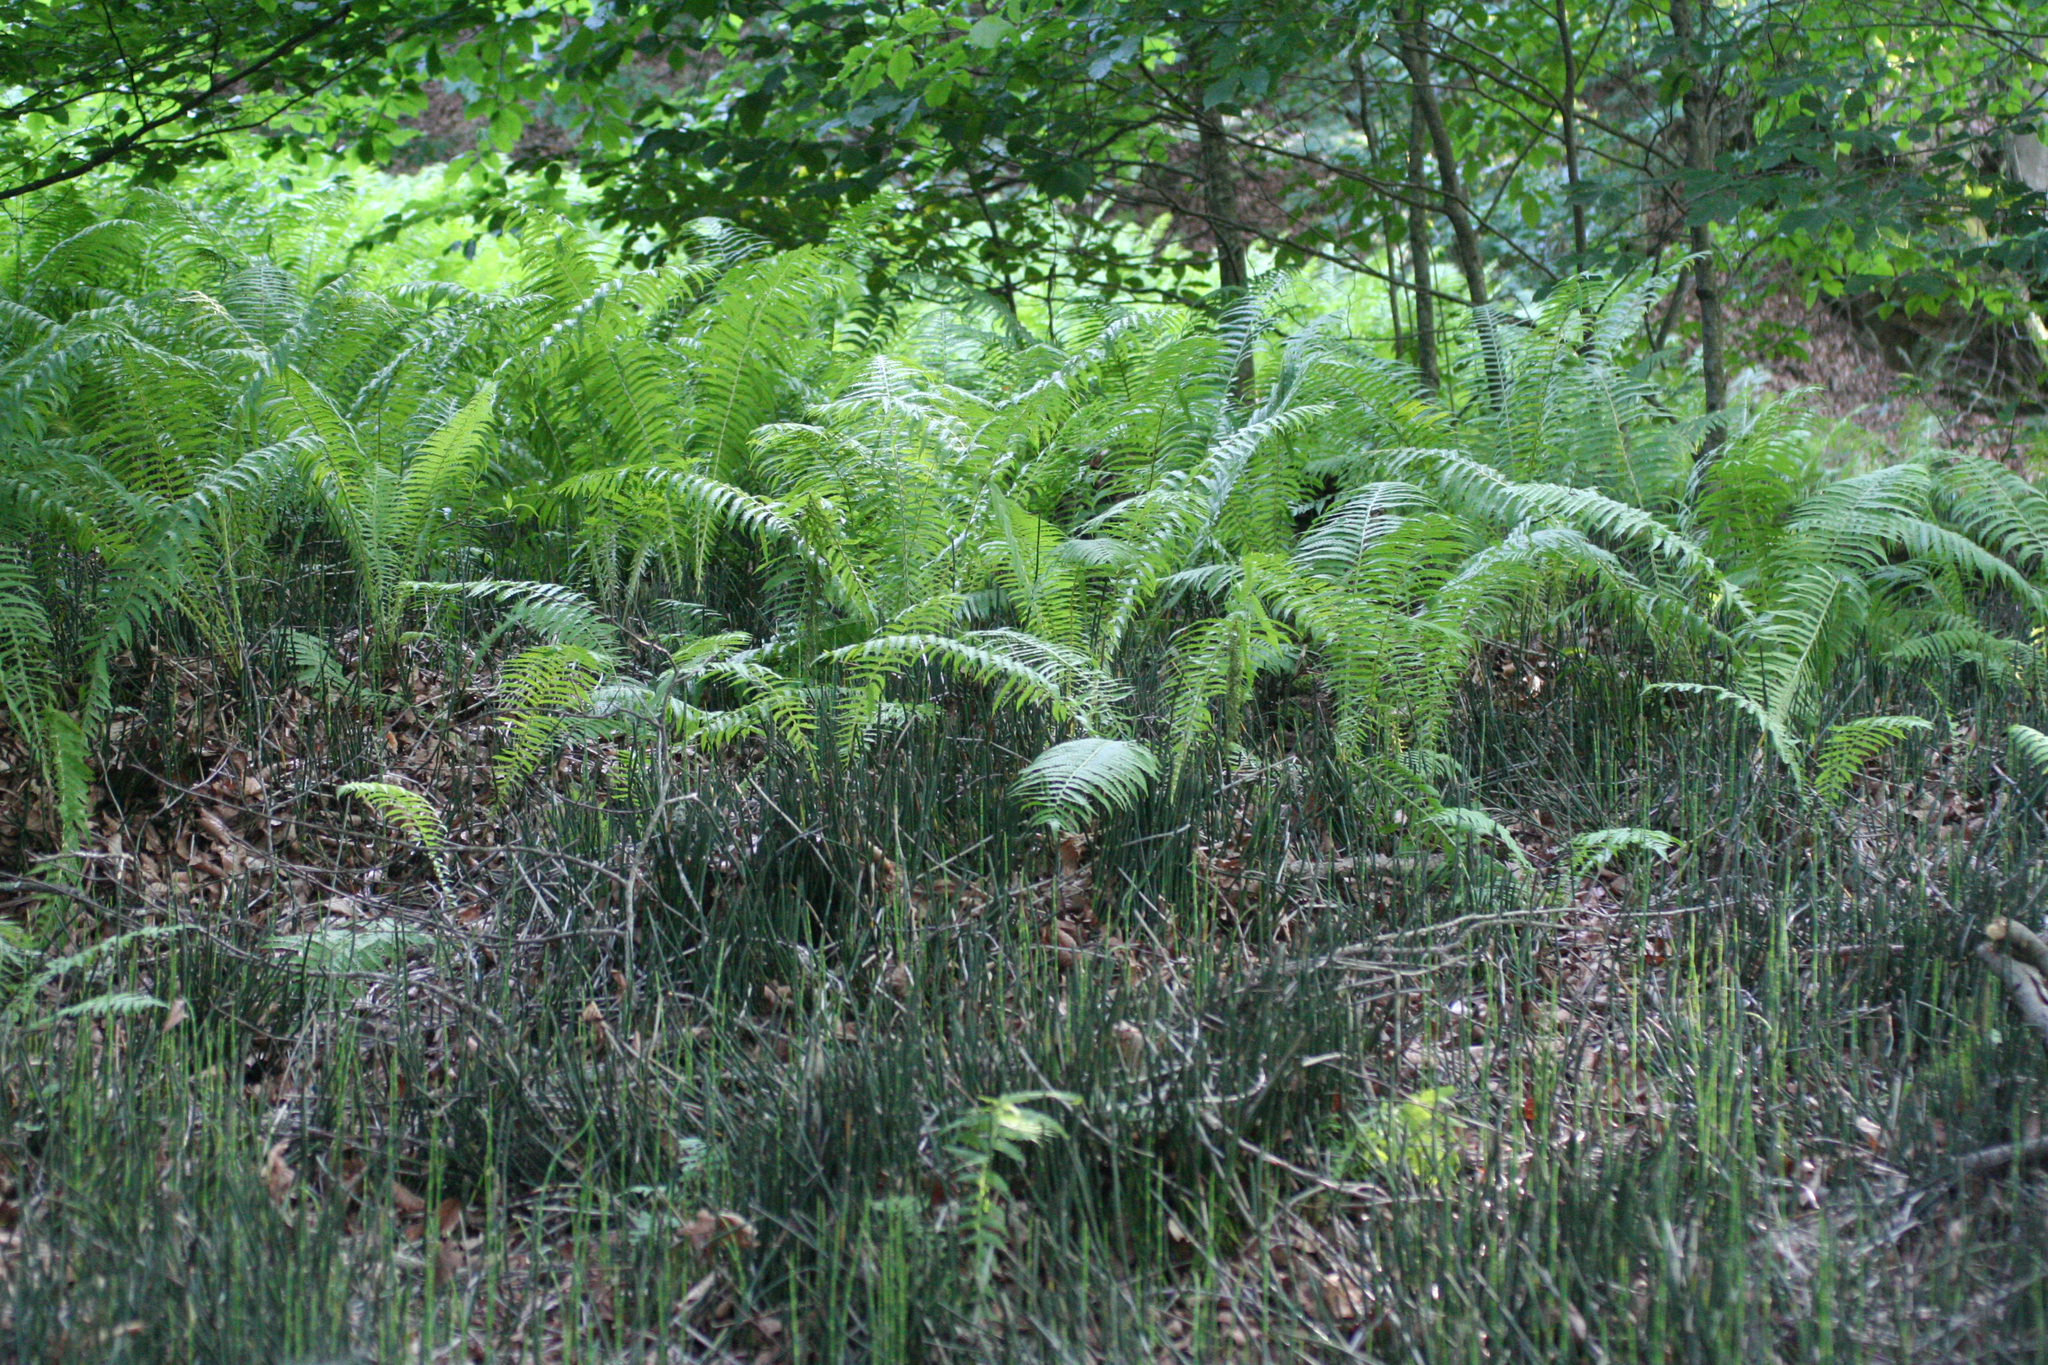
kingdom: Plantae
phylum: Tracheophyta
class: Polypodiopsida
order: Polypodiales
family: Onocleaceae
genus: Matteuccia
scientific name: Matteuccia struthiopteris
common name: Ostrich fern
